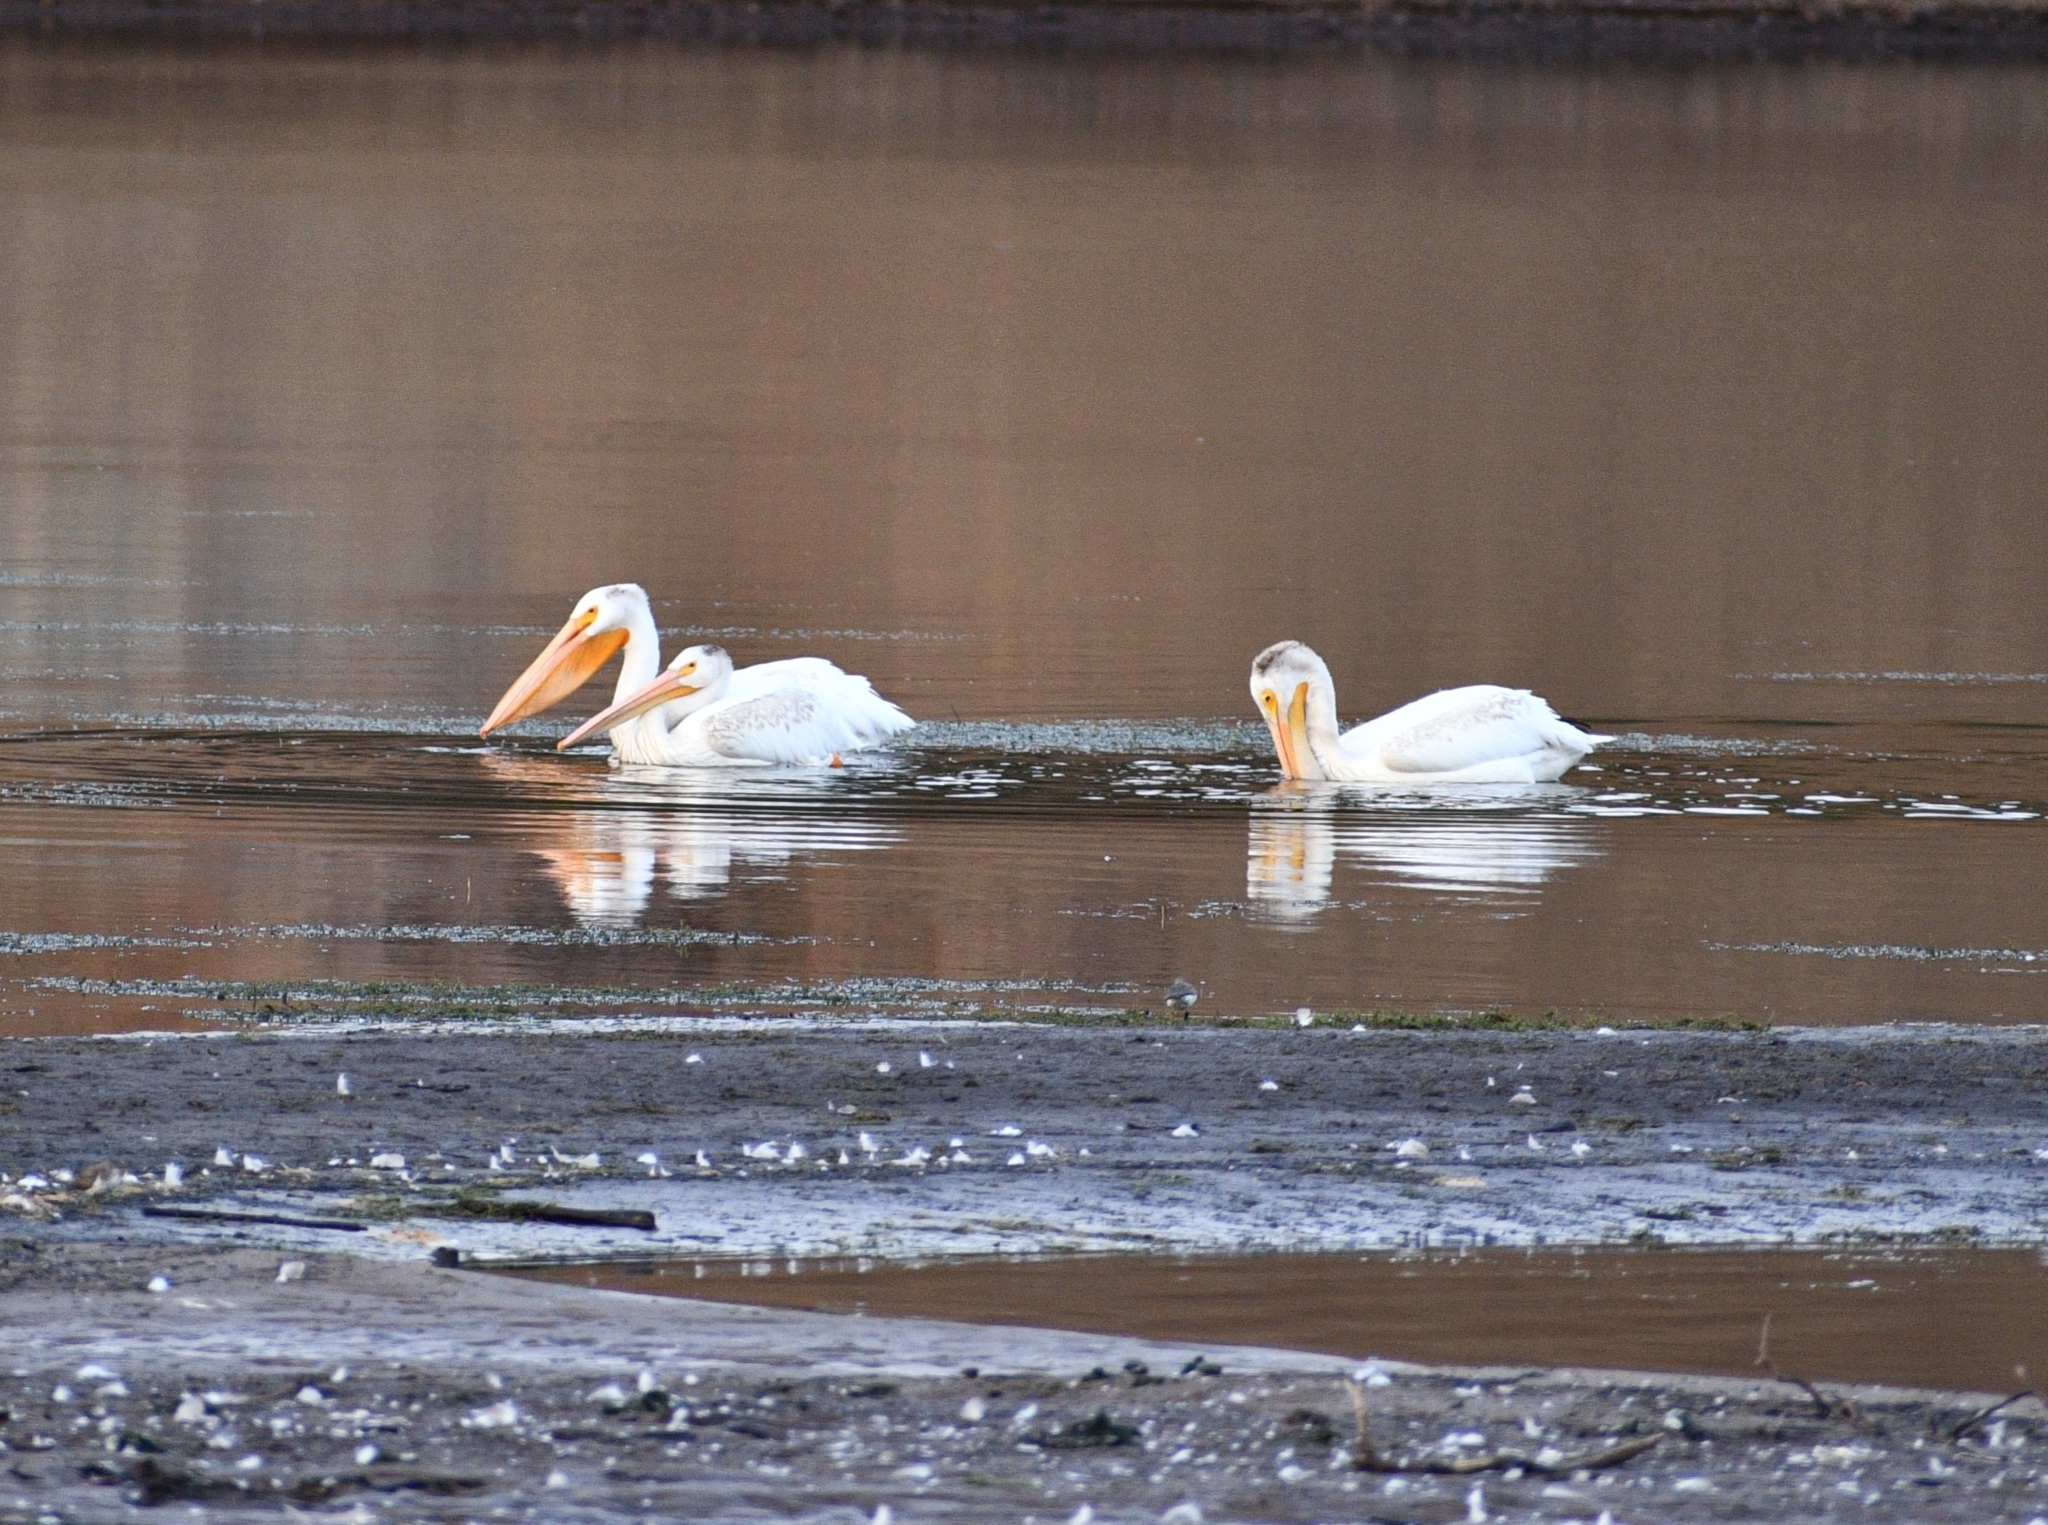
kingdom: Animalia
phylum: Chordata
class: Aves
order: Pelecaniformes
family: Pelecanidae
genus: Pelecanus
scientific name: Pelecanus erythrorhynchos
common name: American white pelican
